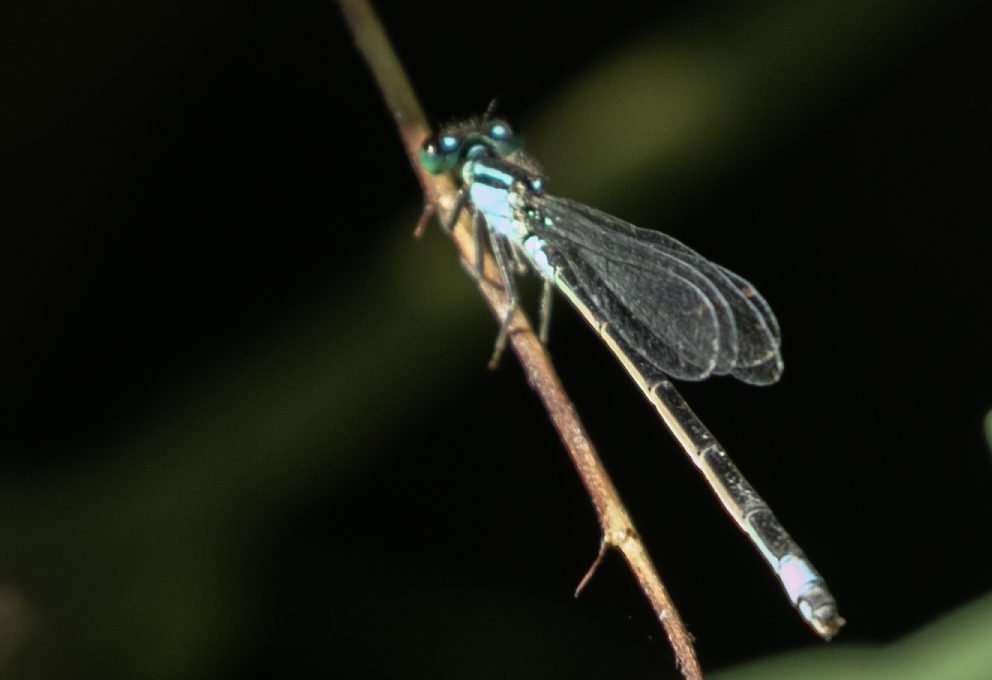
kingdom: Animalia
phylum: Arthropoda
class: Insecta
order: Odonata
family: Coenagrionidae
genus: Ischnura
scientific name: Ischnura elegans
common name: Blue-tailed damselfly
